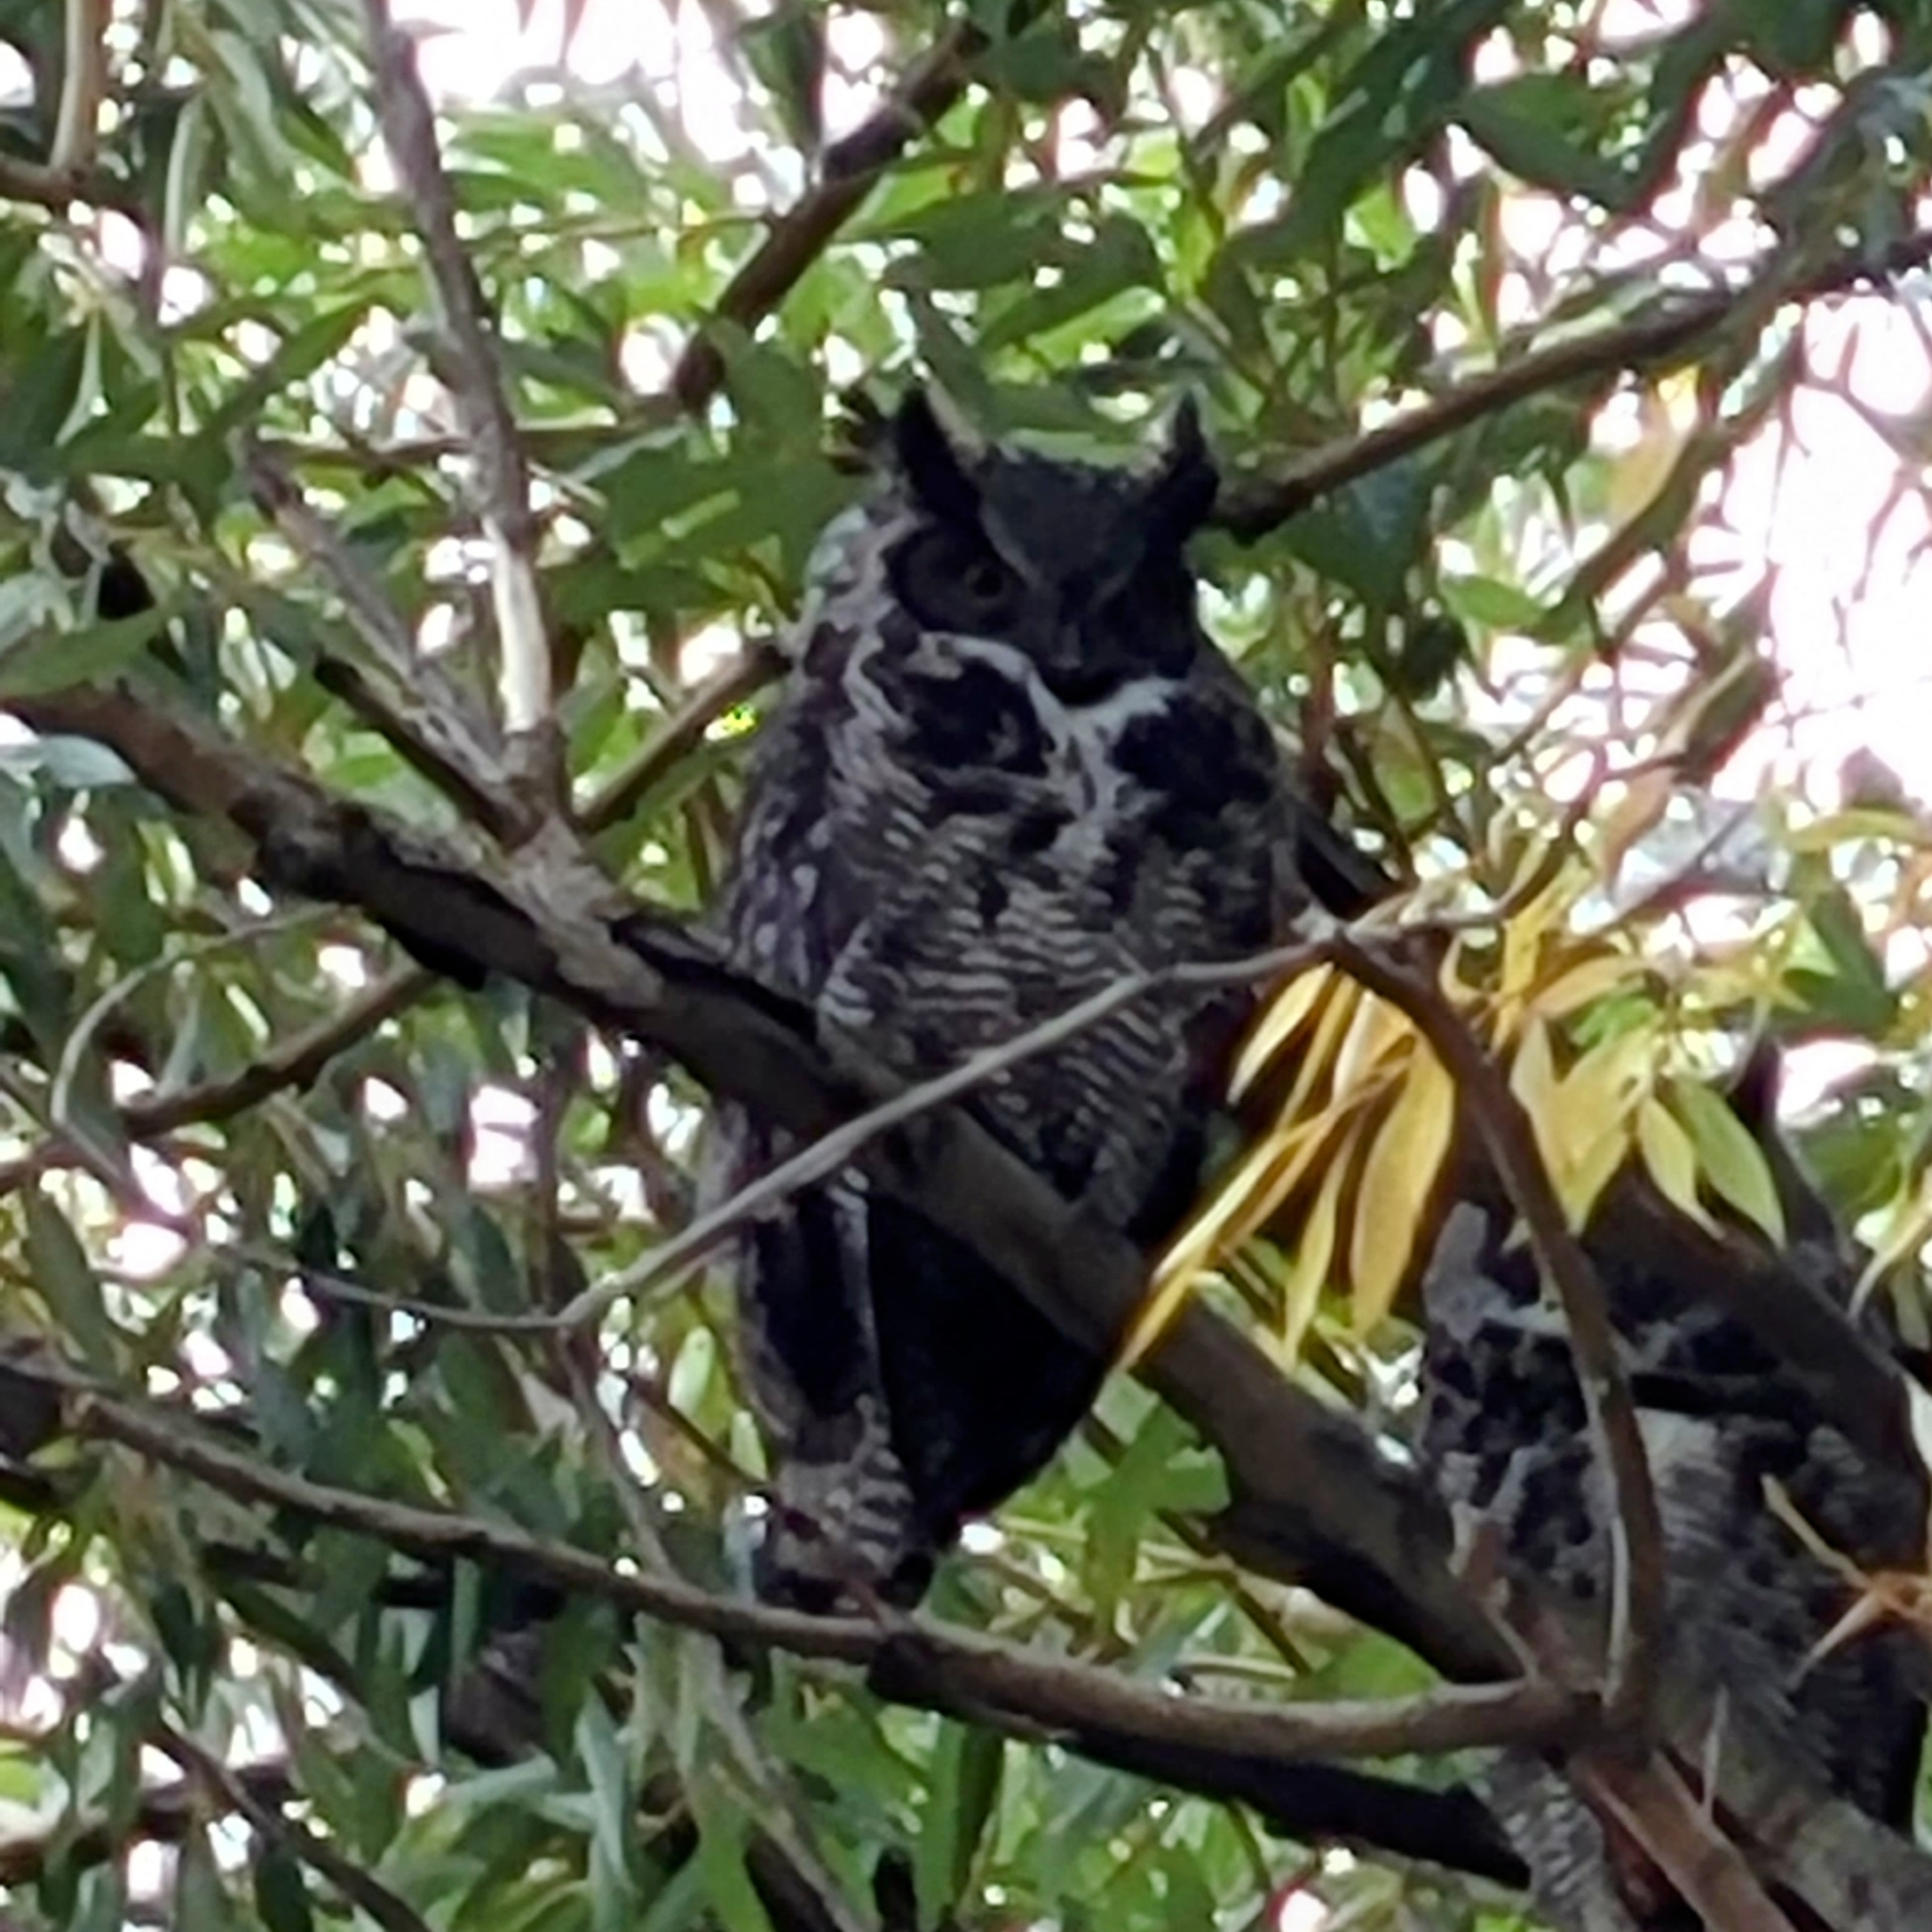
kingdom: Animalia
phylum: Chordata
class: Aves
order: Strigiformes
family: Strigidae
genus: Bubo
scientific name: Bubo virginianus
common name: Great horned owl
